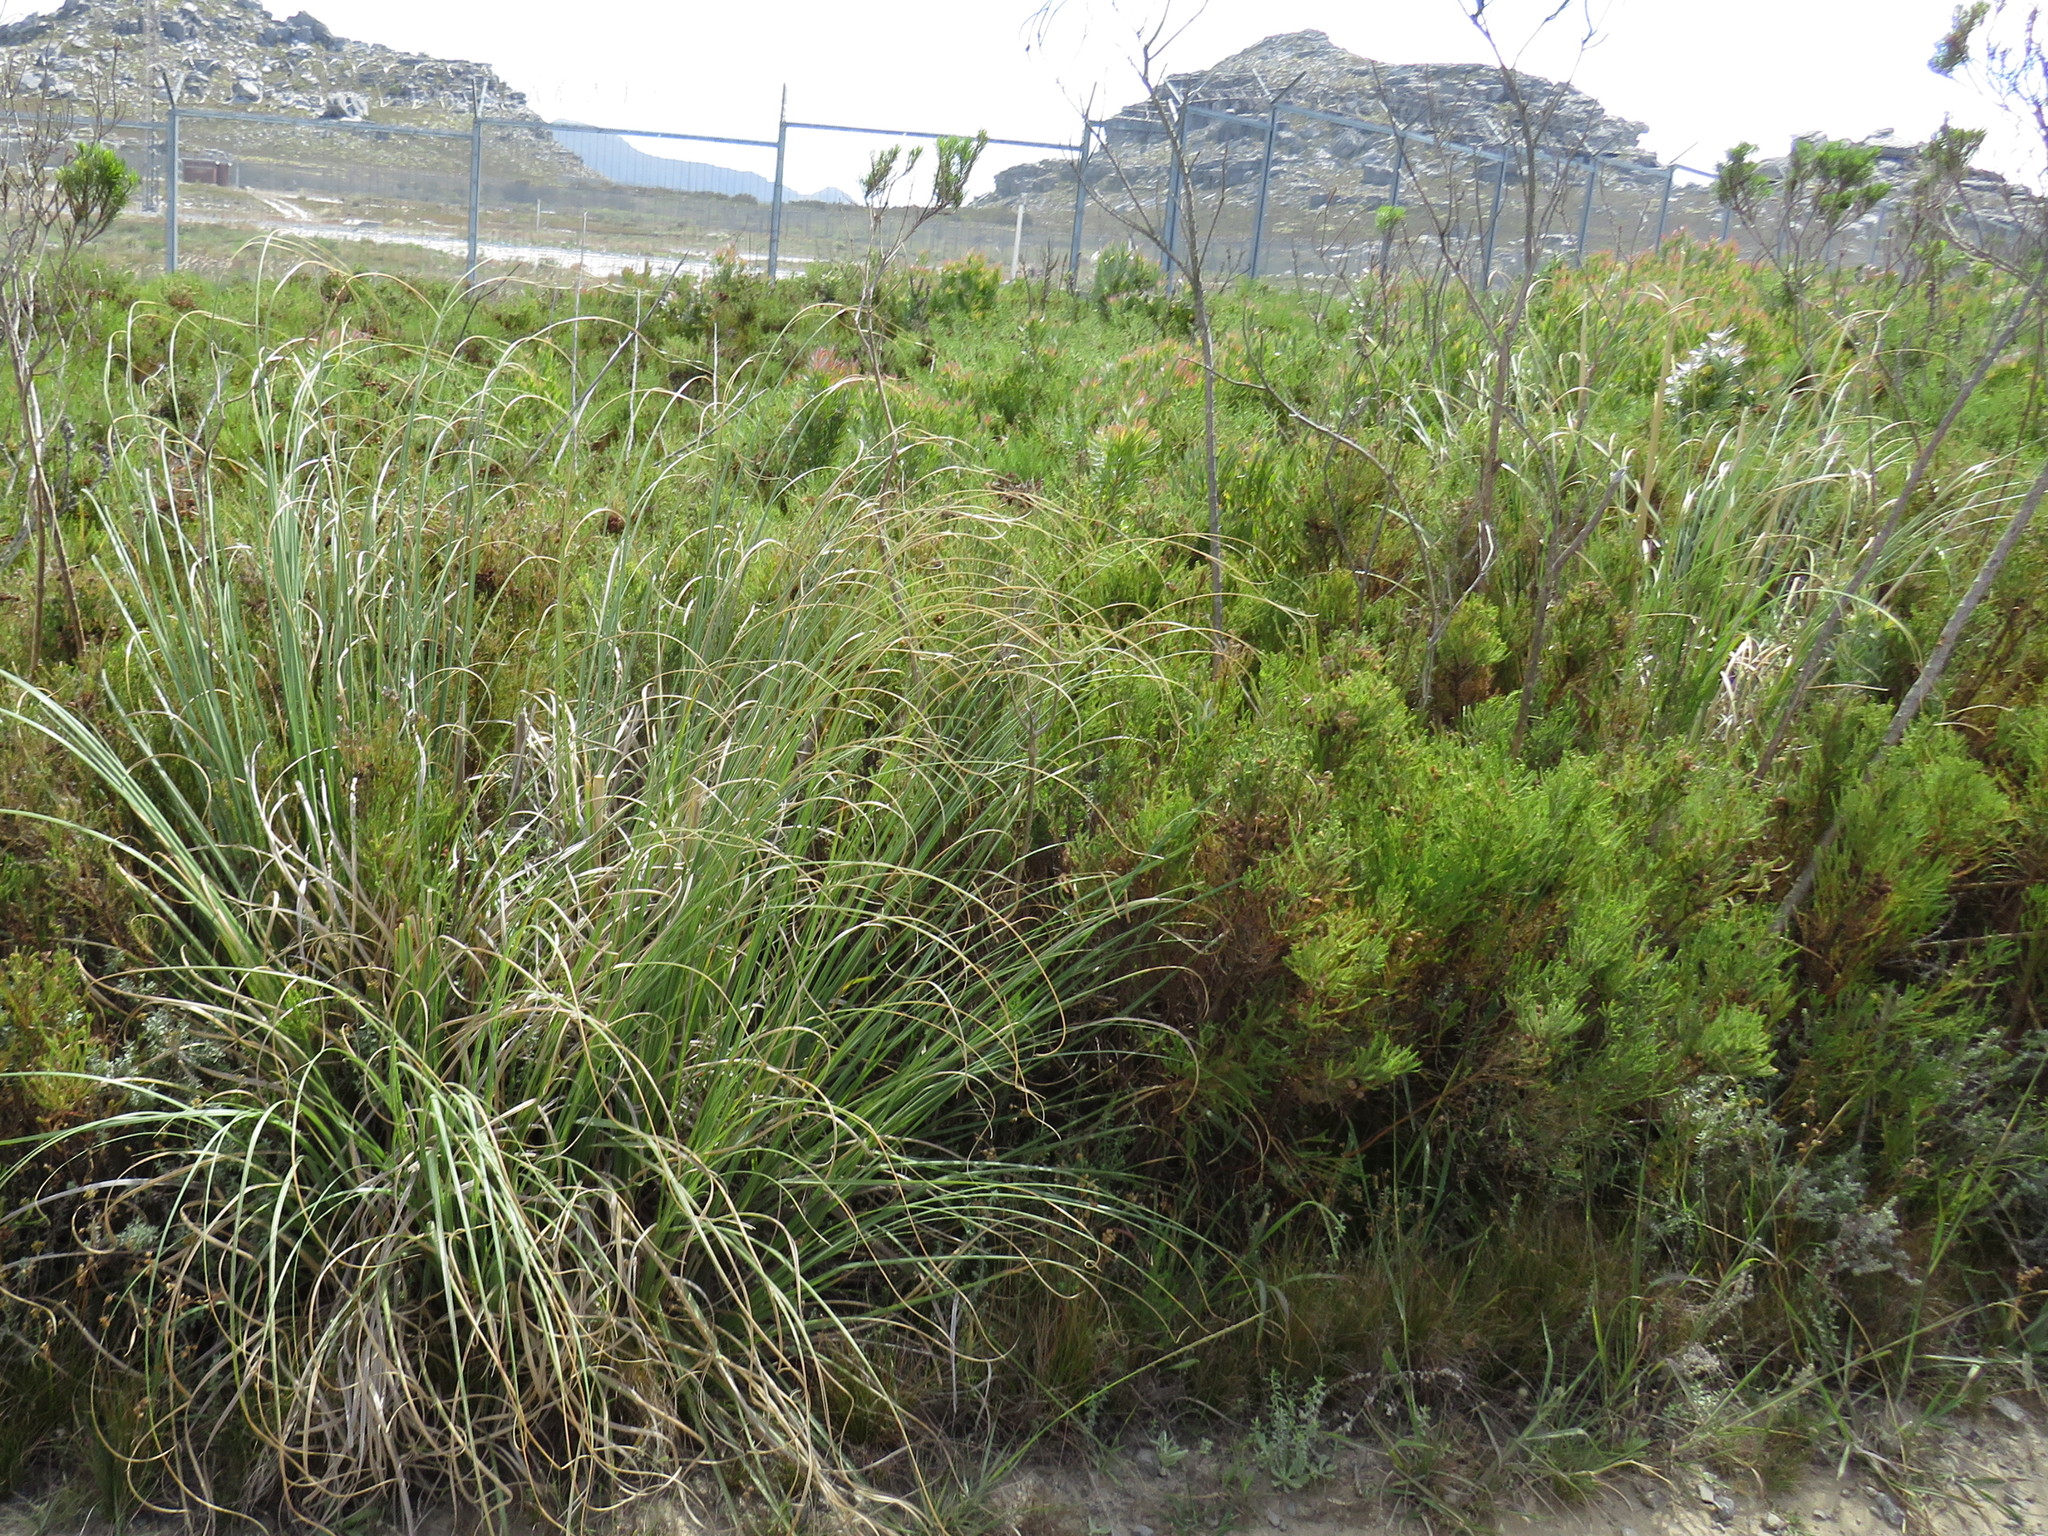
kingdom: Plantae
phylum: Tracheophyta
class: Liliopsida
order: Poales
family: Poaceae
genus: Cortaderia
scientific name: Cortaderia selloana
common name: Uruguayan pampas grass
